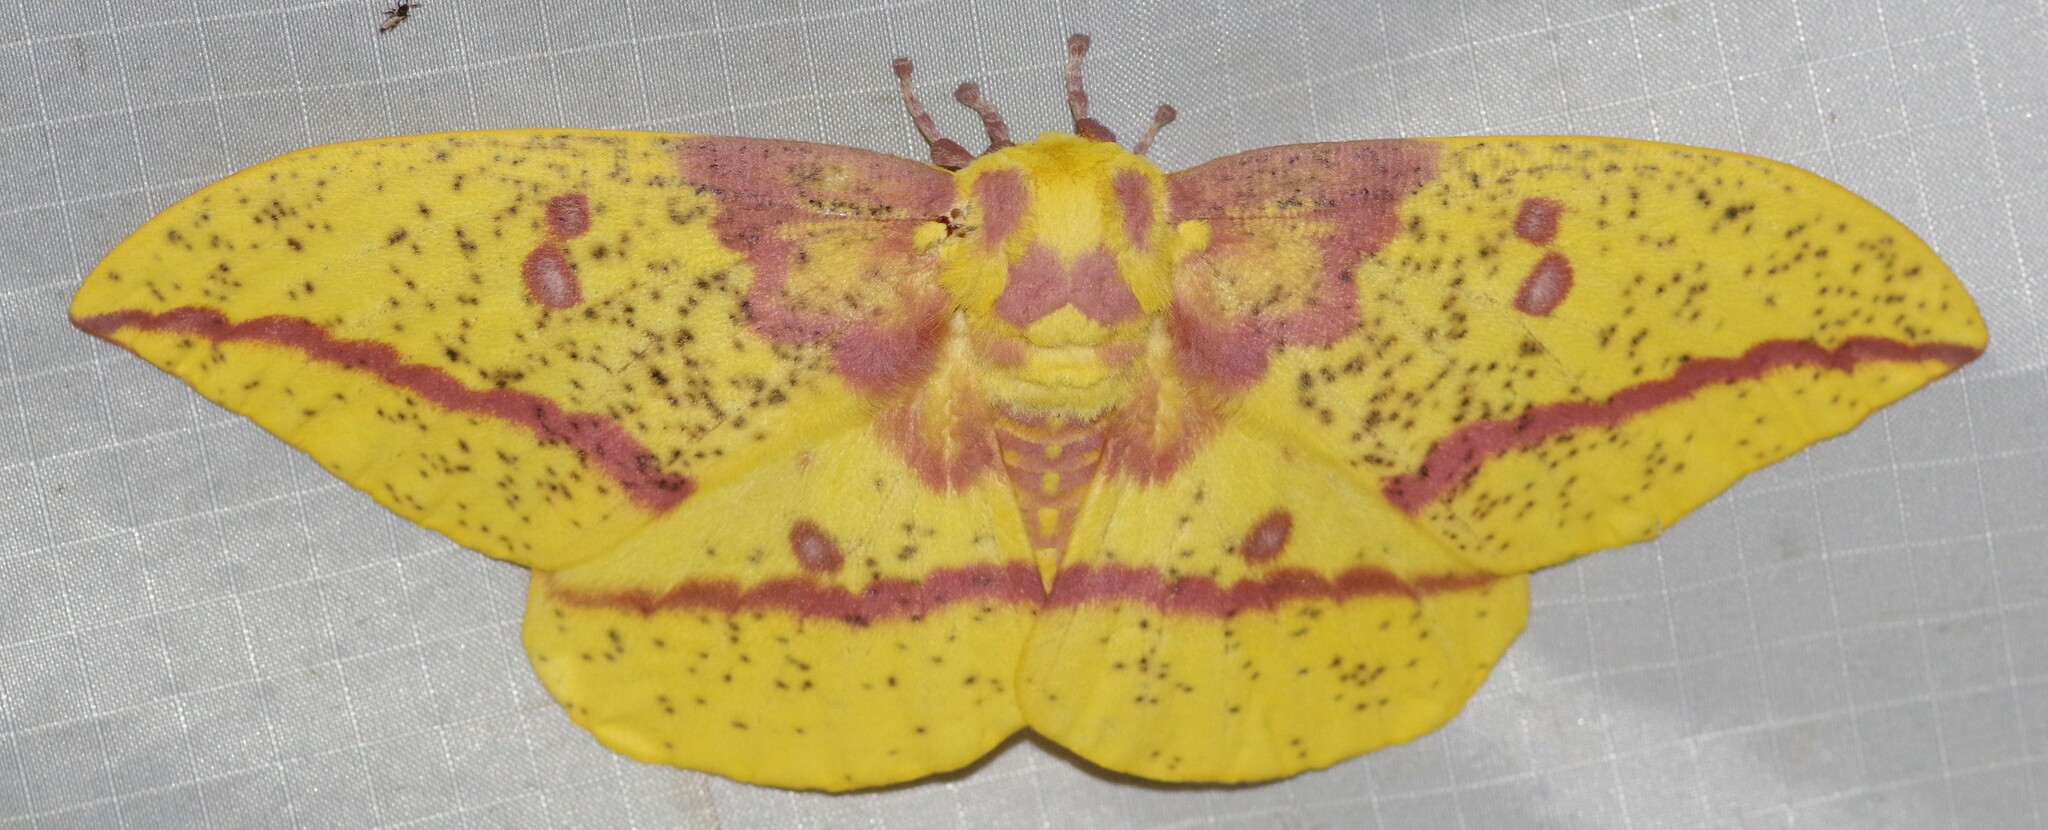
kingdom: Animalia
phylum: Arthropoda
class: Insecta
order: Lepidoptera
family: Saturniidae
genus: Eacles
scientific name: Eacles imperialis
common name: Imperial moth
